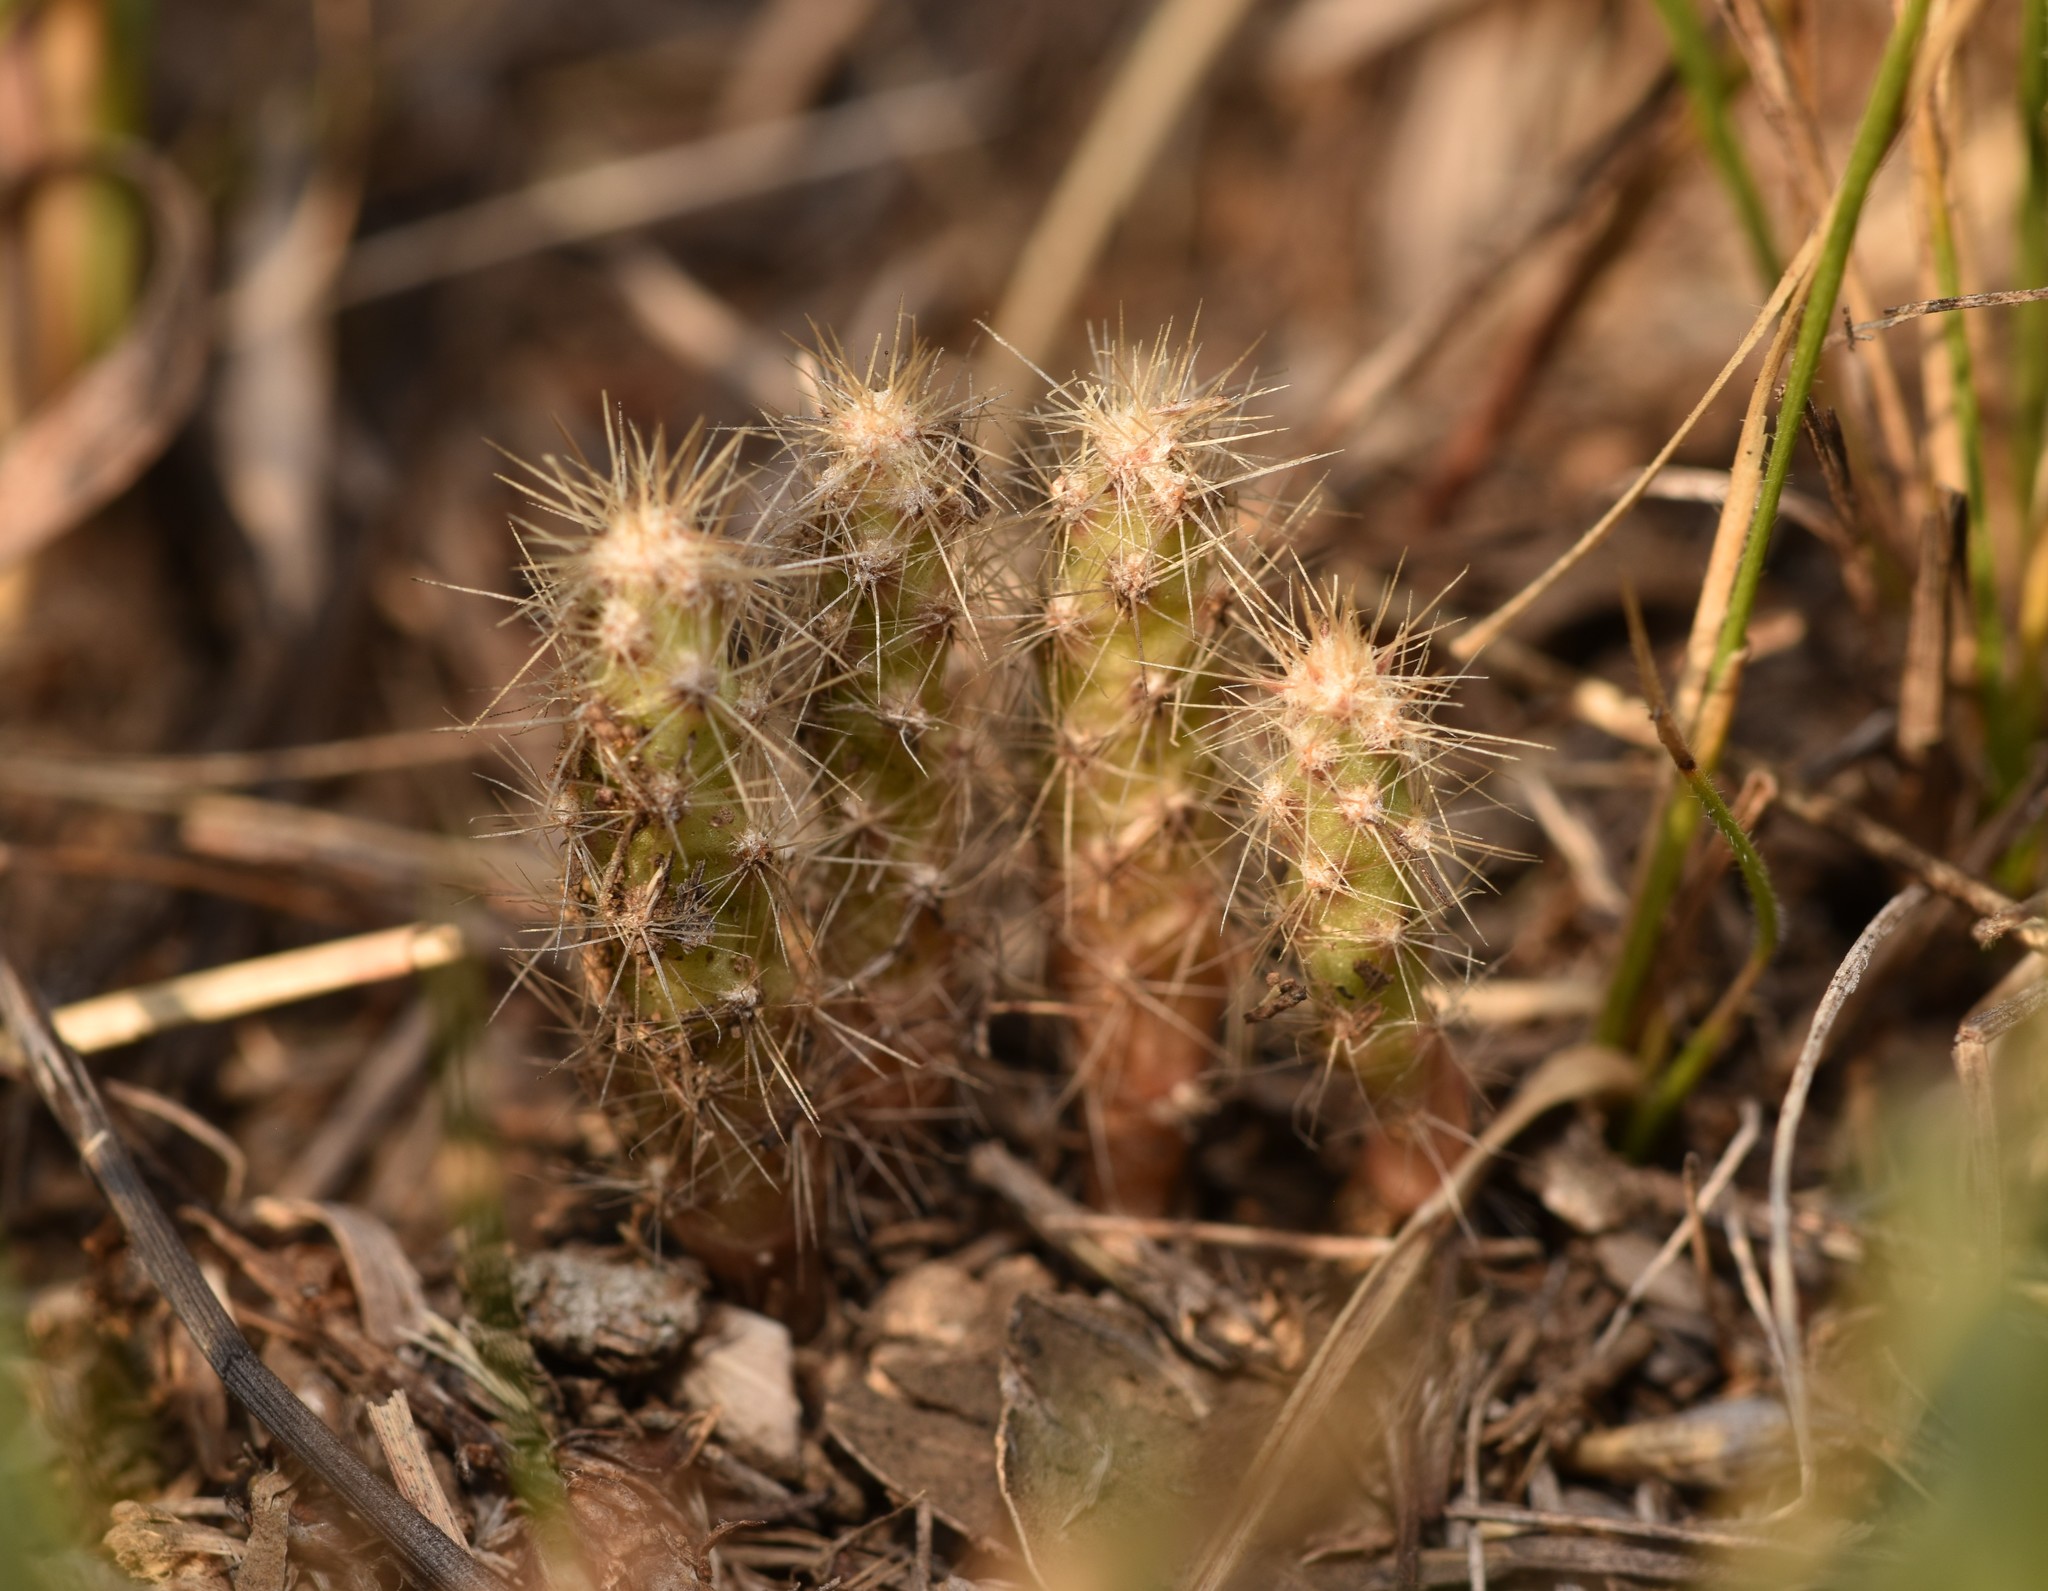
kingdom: Plantae
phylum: Tracheophyta
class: Magnoliopsida
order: Caryophyllales
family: Cactaceae
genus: Cylindropuntia
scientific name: Cylindropuntia leptocaulis
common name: Christmas cactus
